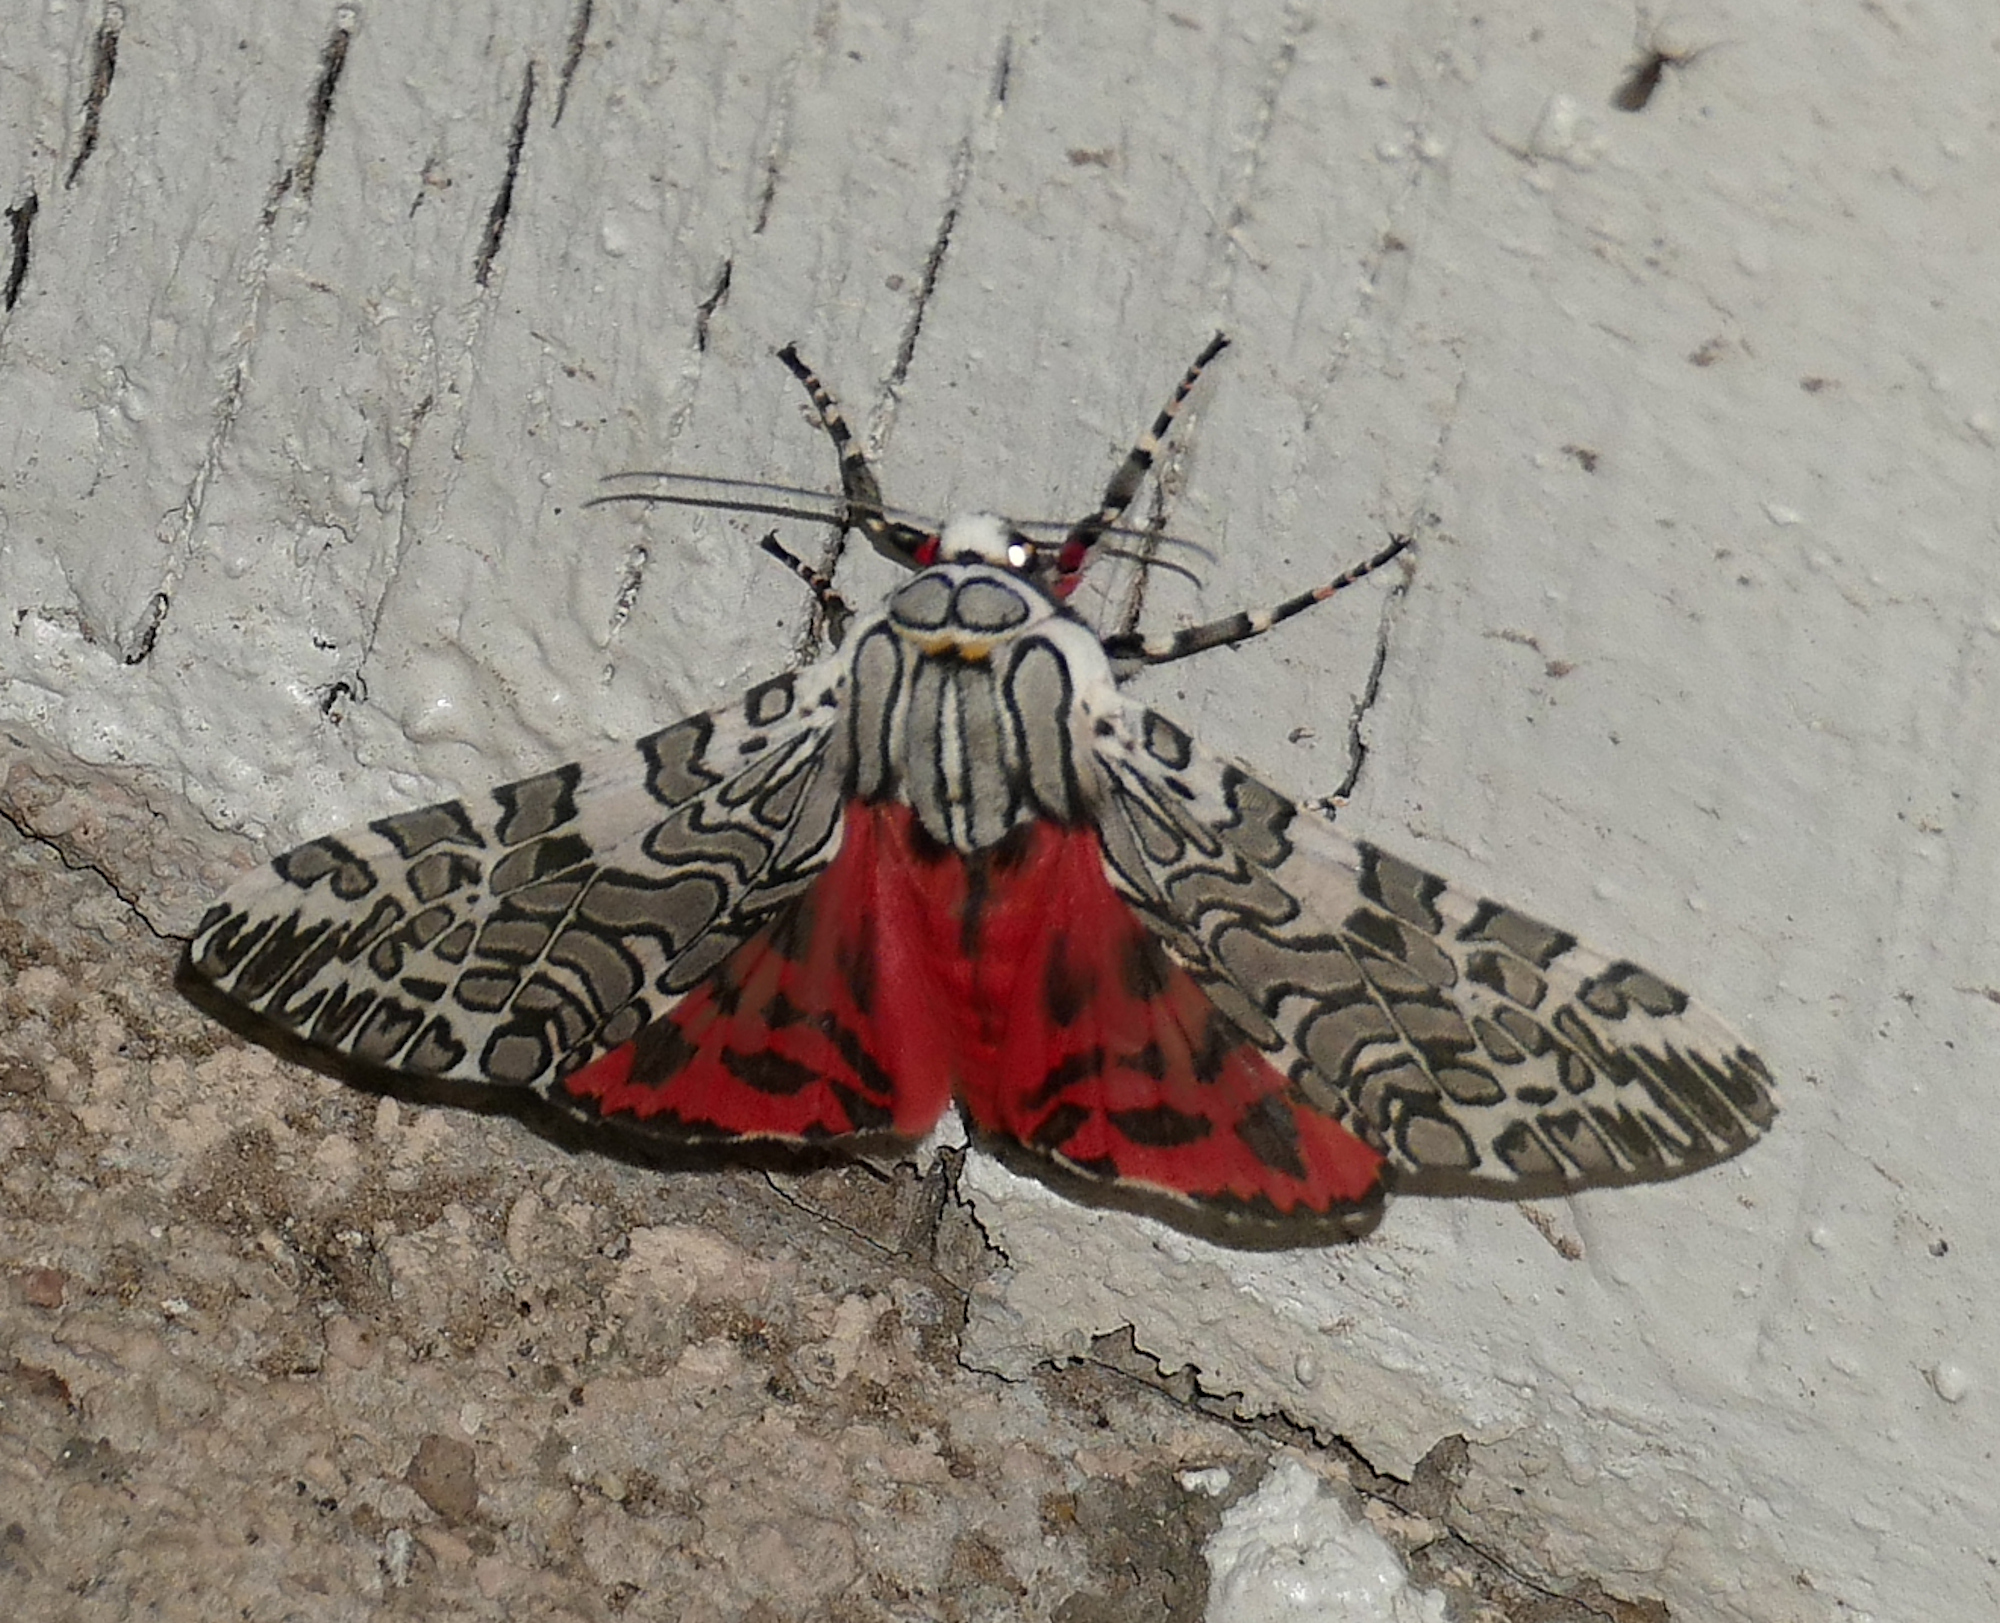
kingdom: Animalia
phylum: Arthropoda
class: Insecta
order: Lepidoptera
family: Erebidae
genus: Arachnis
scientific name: Arachnis picta
